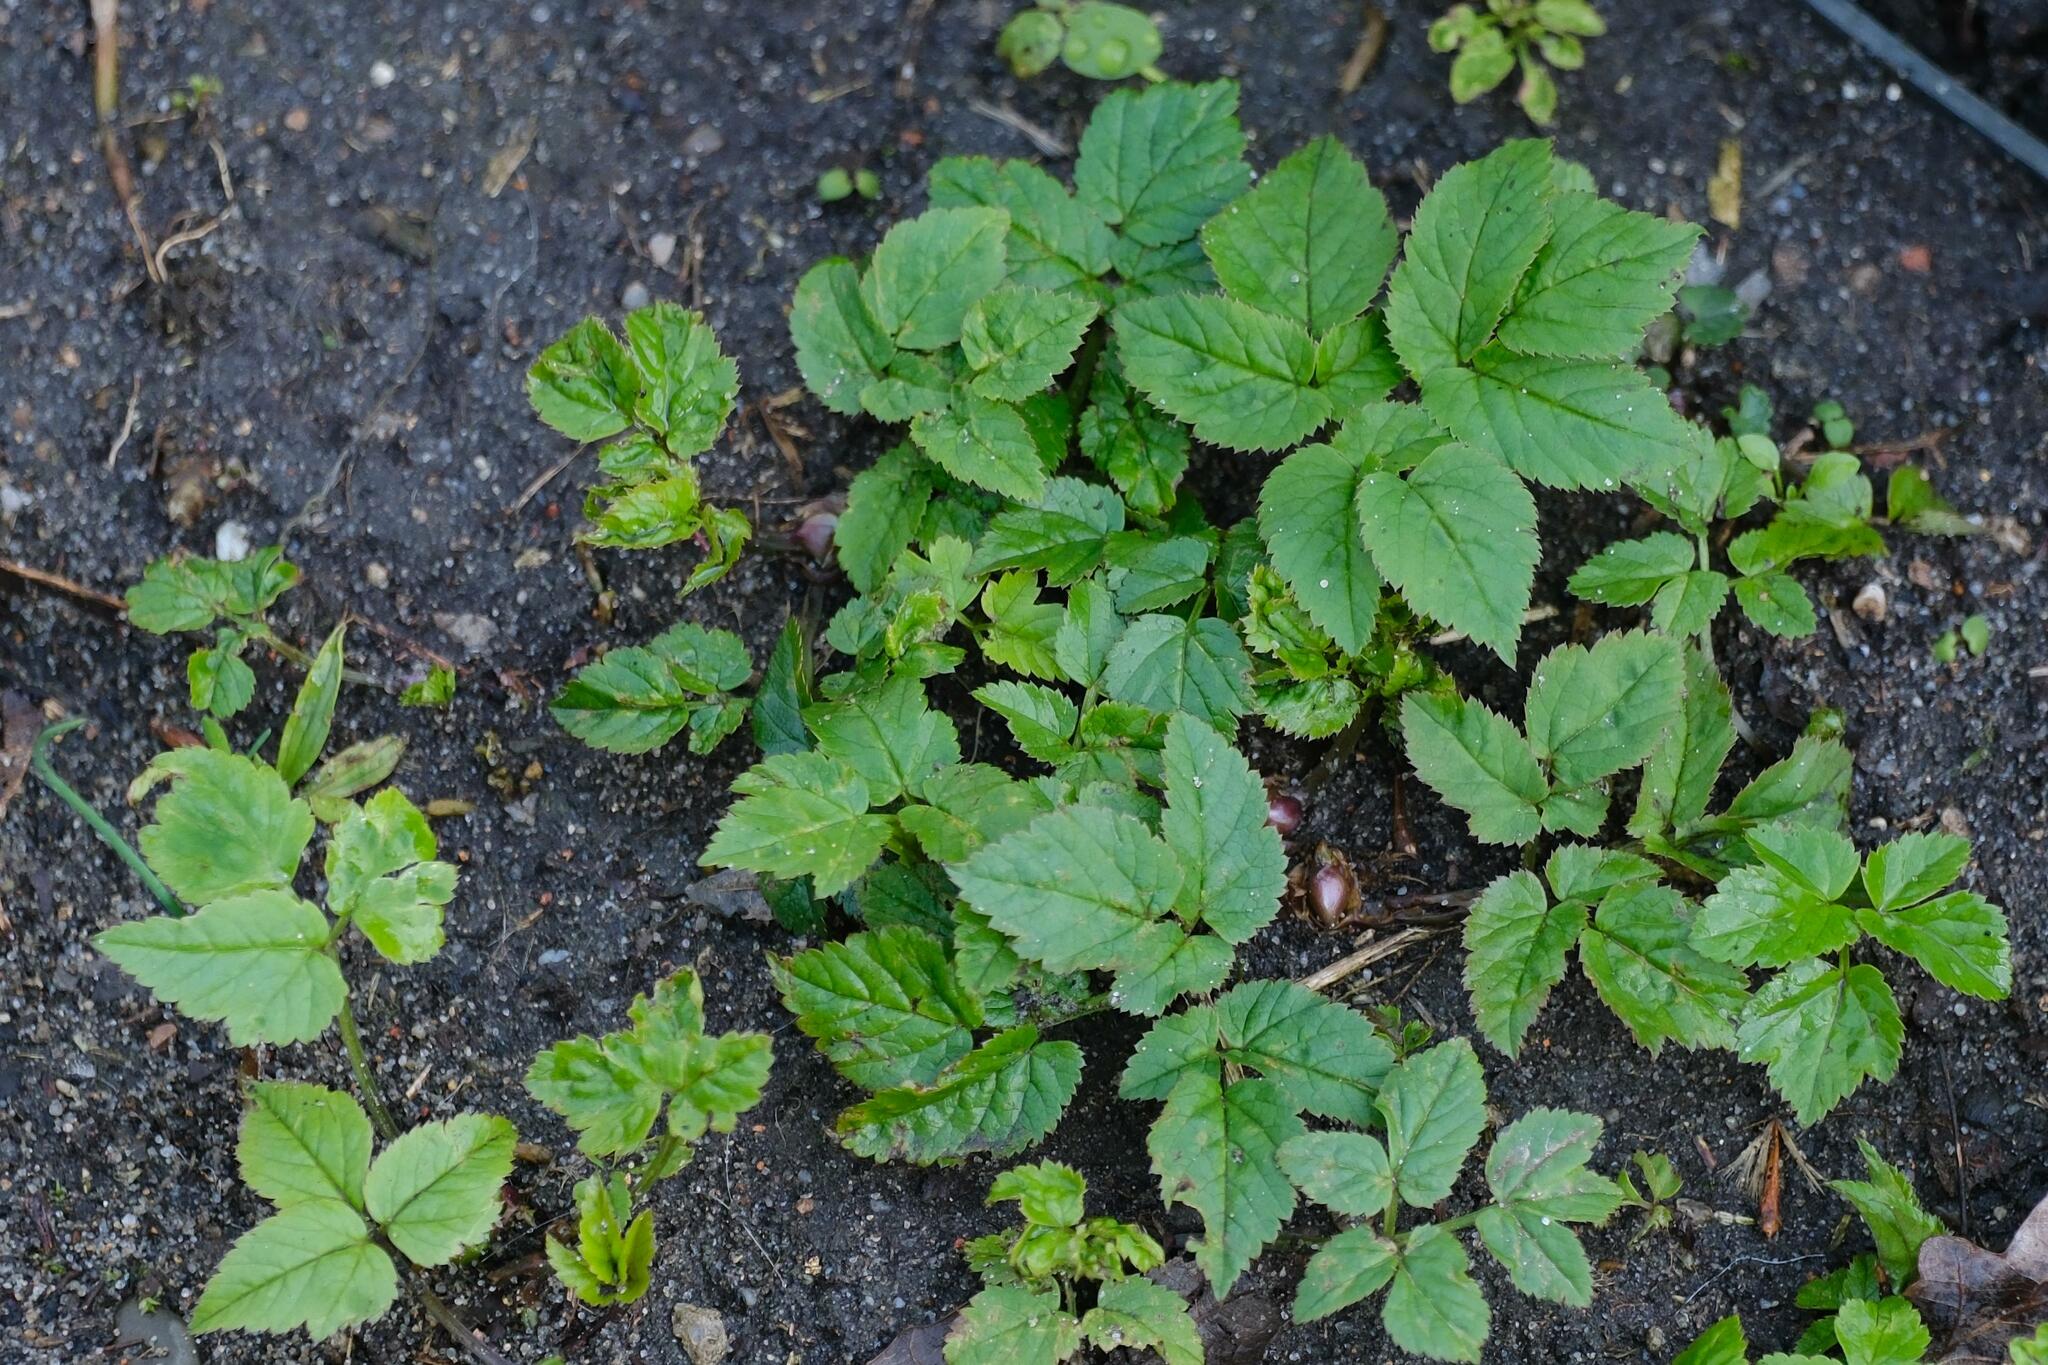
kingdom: Plantae
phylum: Tracheophyta
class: Magnoliopsida
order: Apiales
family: Apiaceae
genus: Aegopodium
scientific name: Aegopodium podagraria
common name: Ground-elder
